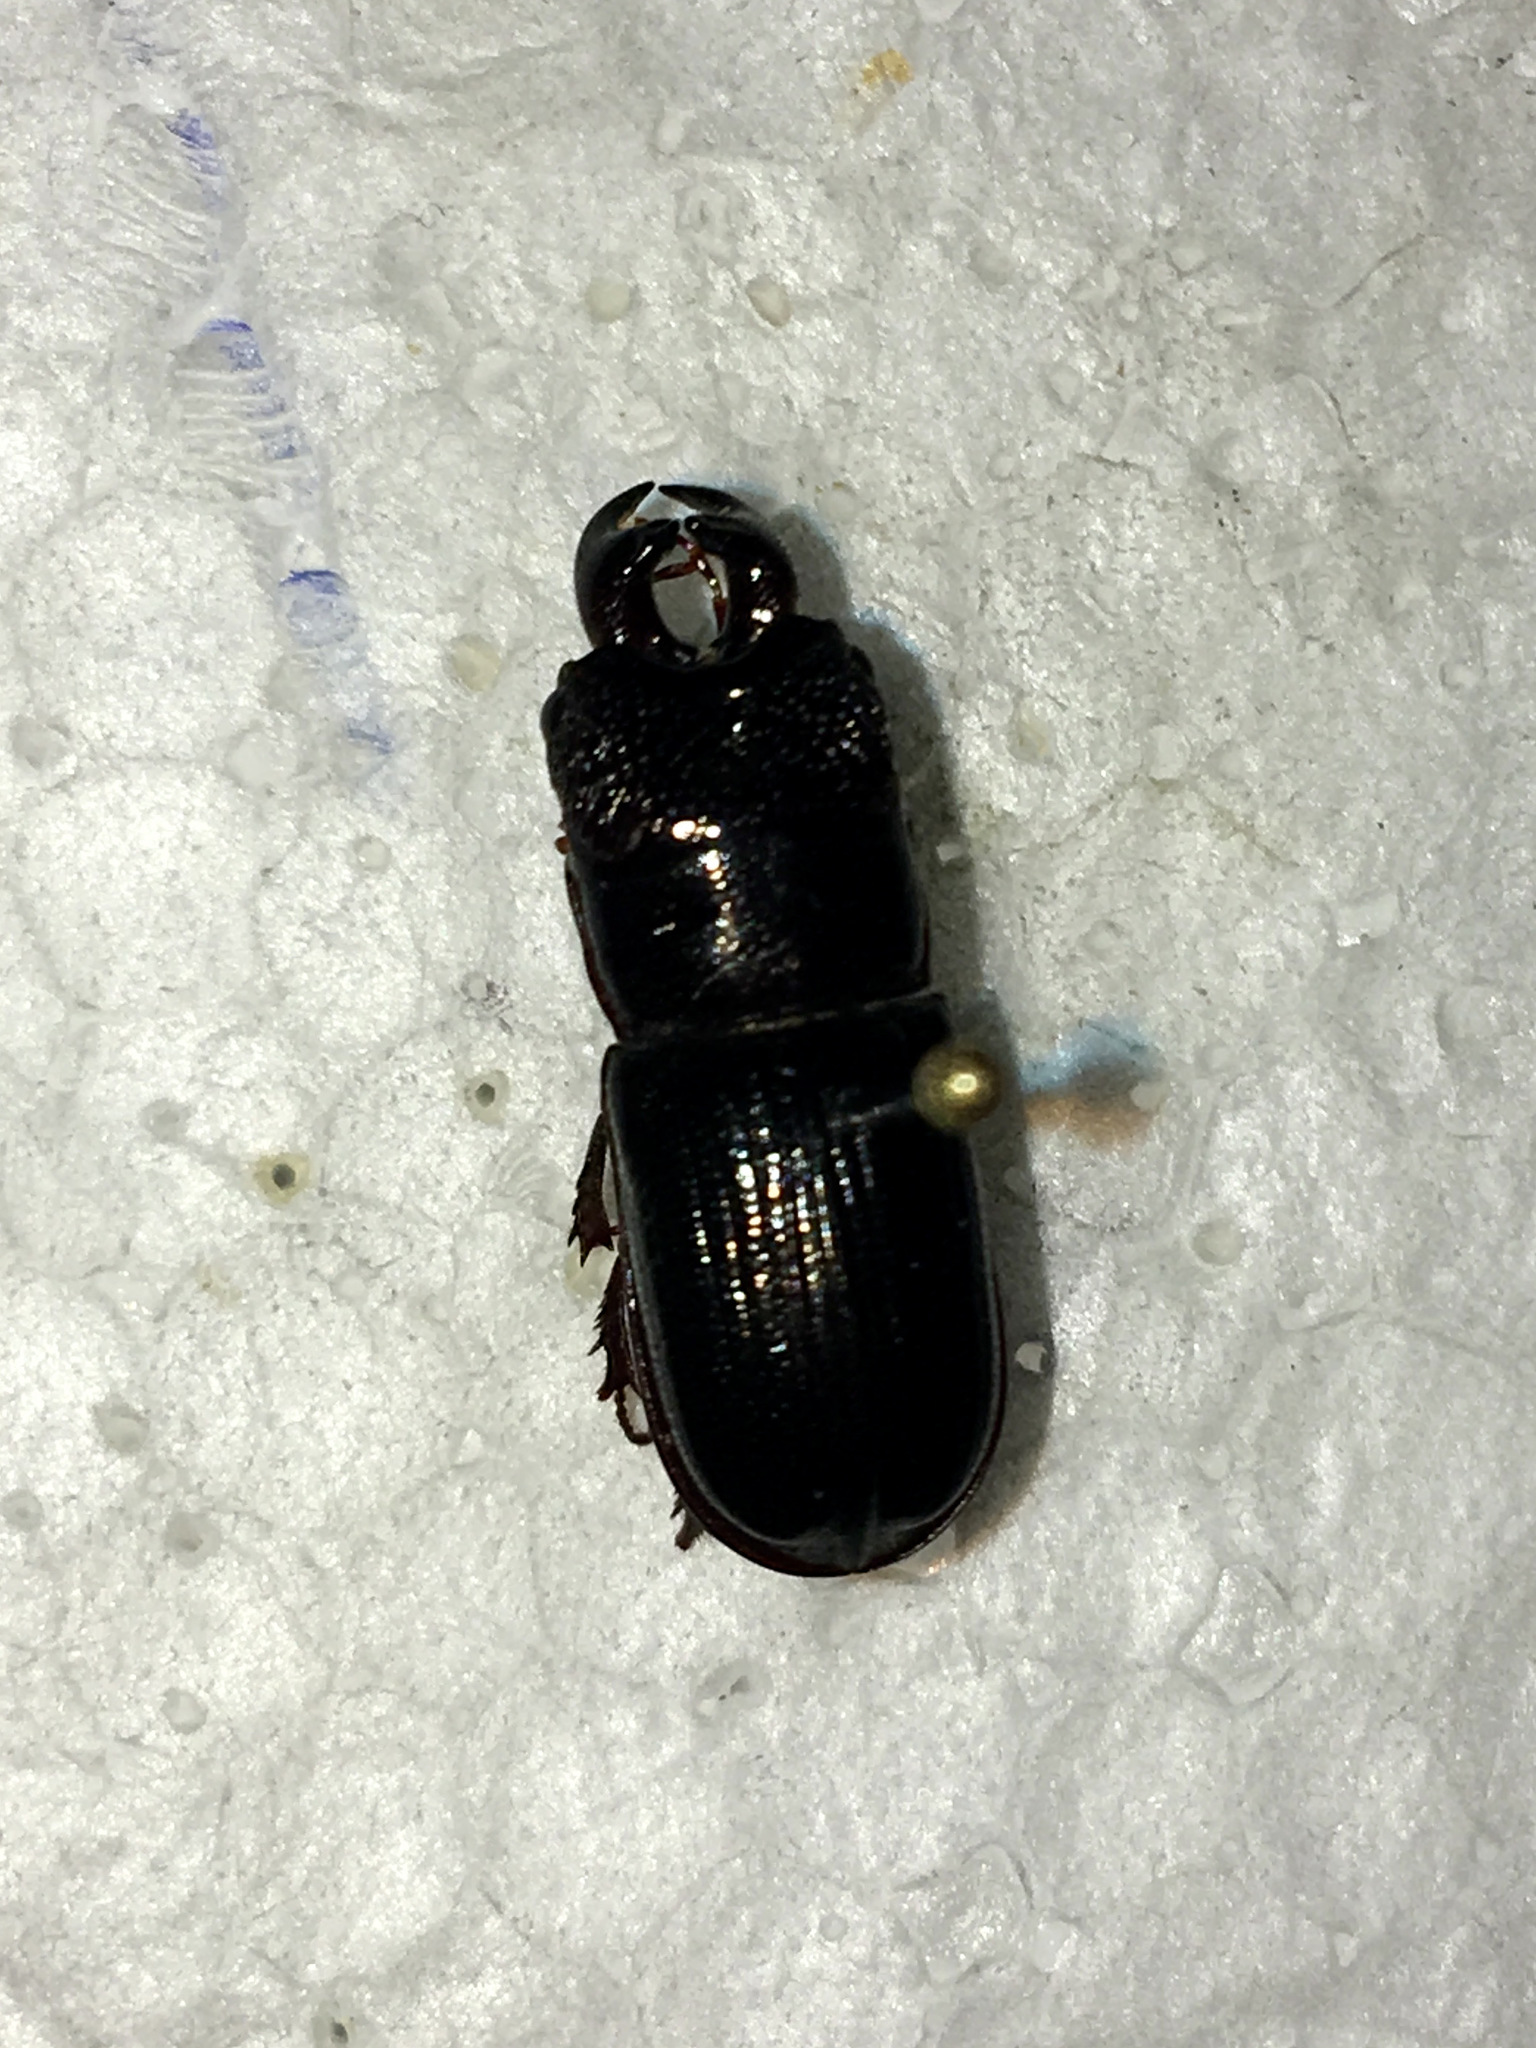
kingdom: Animalia
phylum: Arthropoda
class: Insecta
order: Coleoptera
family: Lucanidae
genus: Ceruchus
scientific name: Ceruchus piceus
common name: Red-rot decay stag beetle
